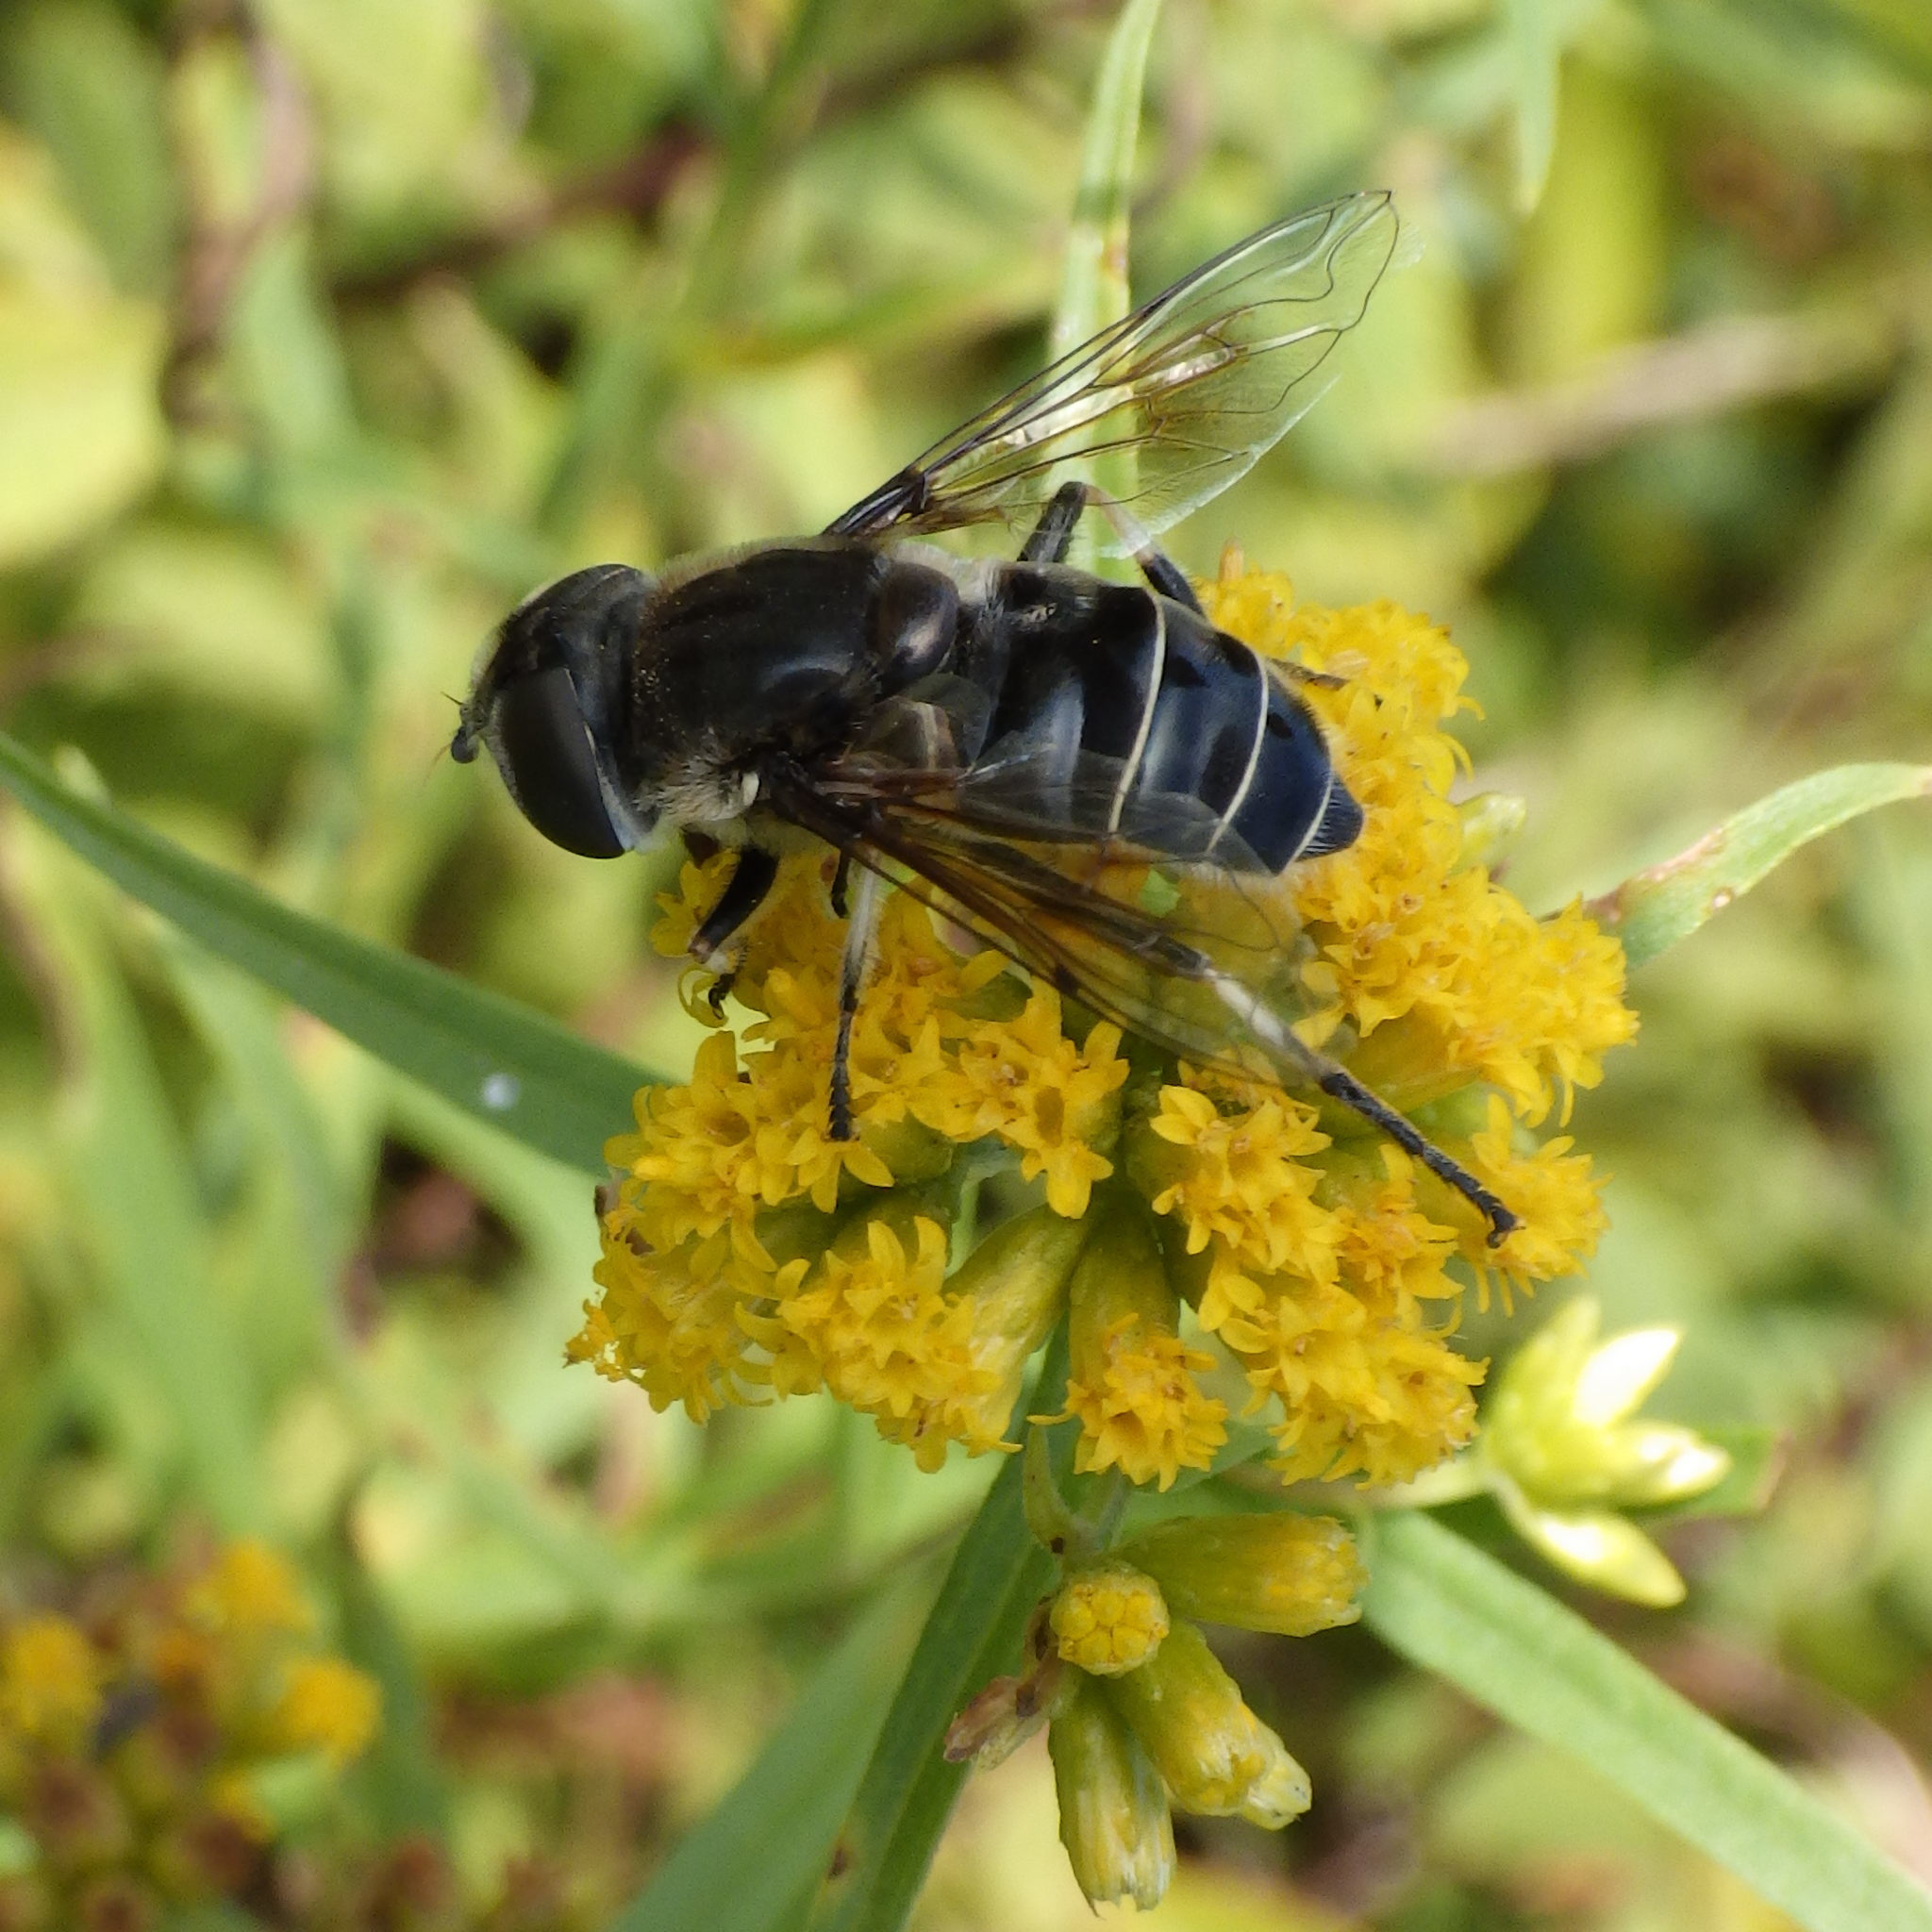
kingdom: Animalia
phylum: Arthropoda
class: Insecta
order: Diptera
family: Syrphidae
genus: Eristalis
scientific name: Eristalis dimidiata
